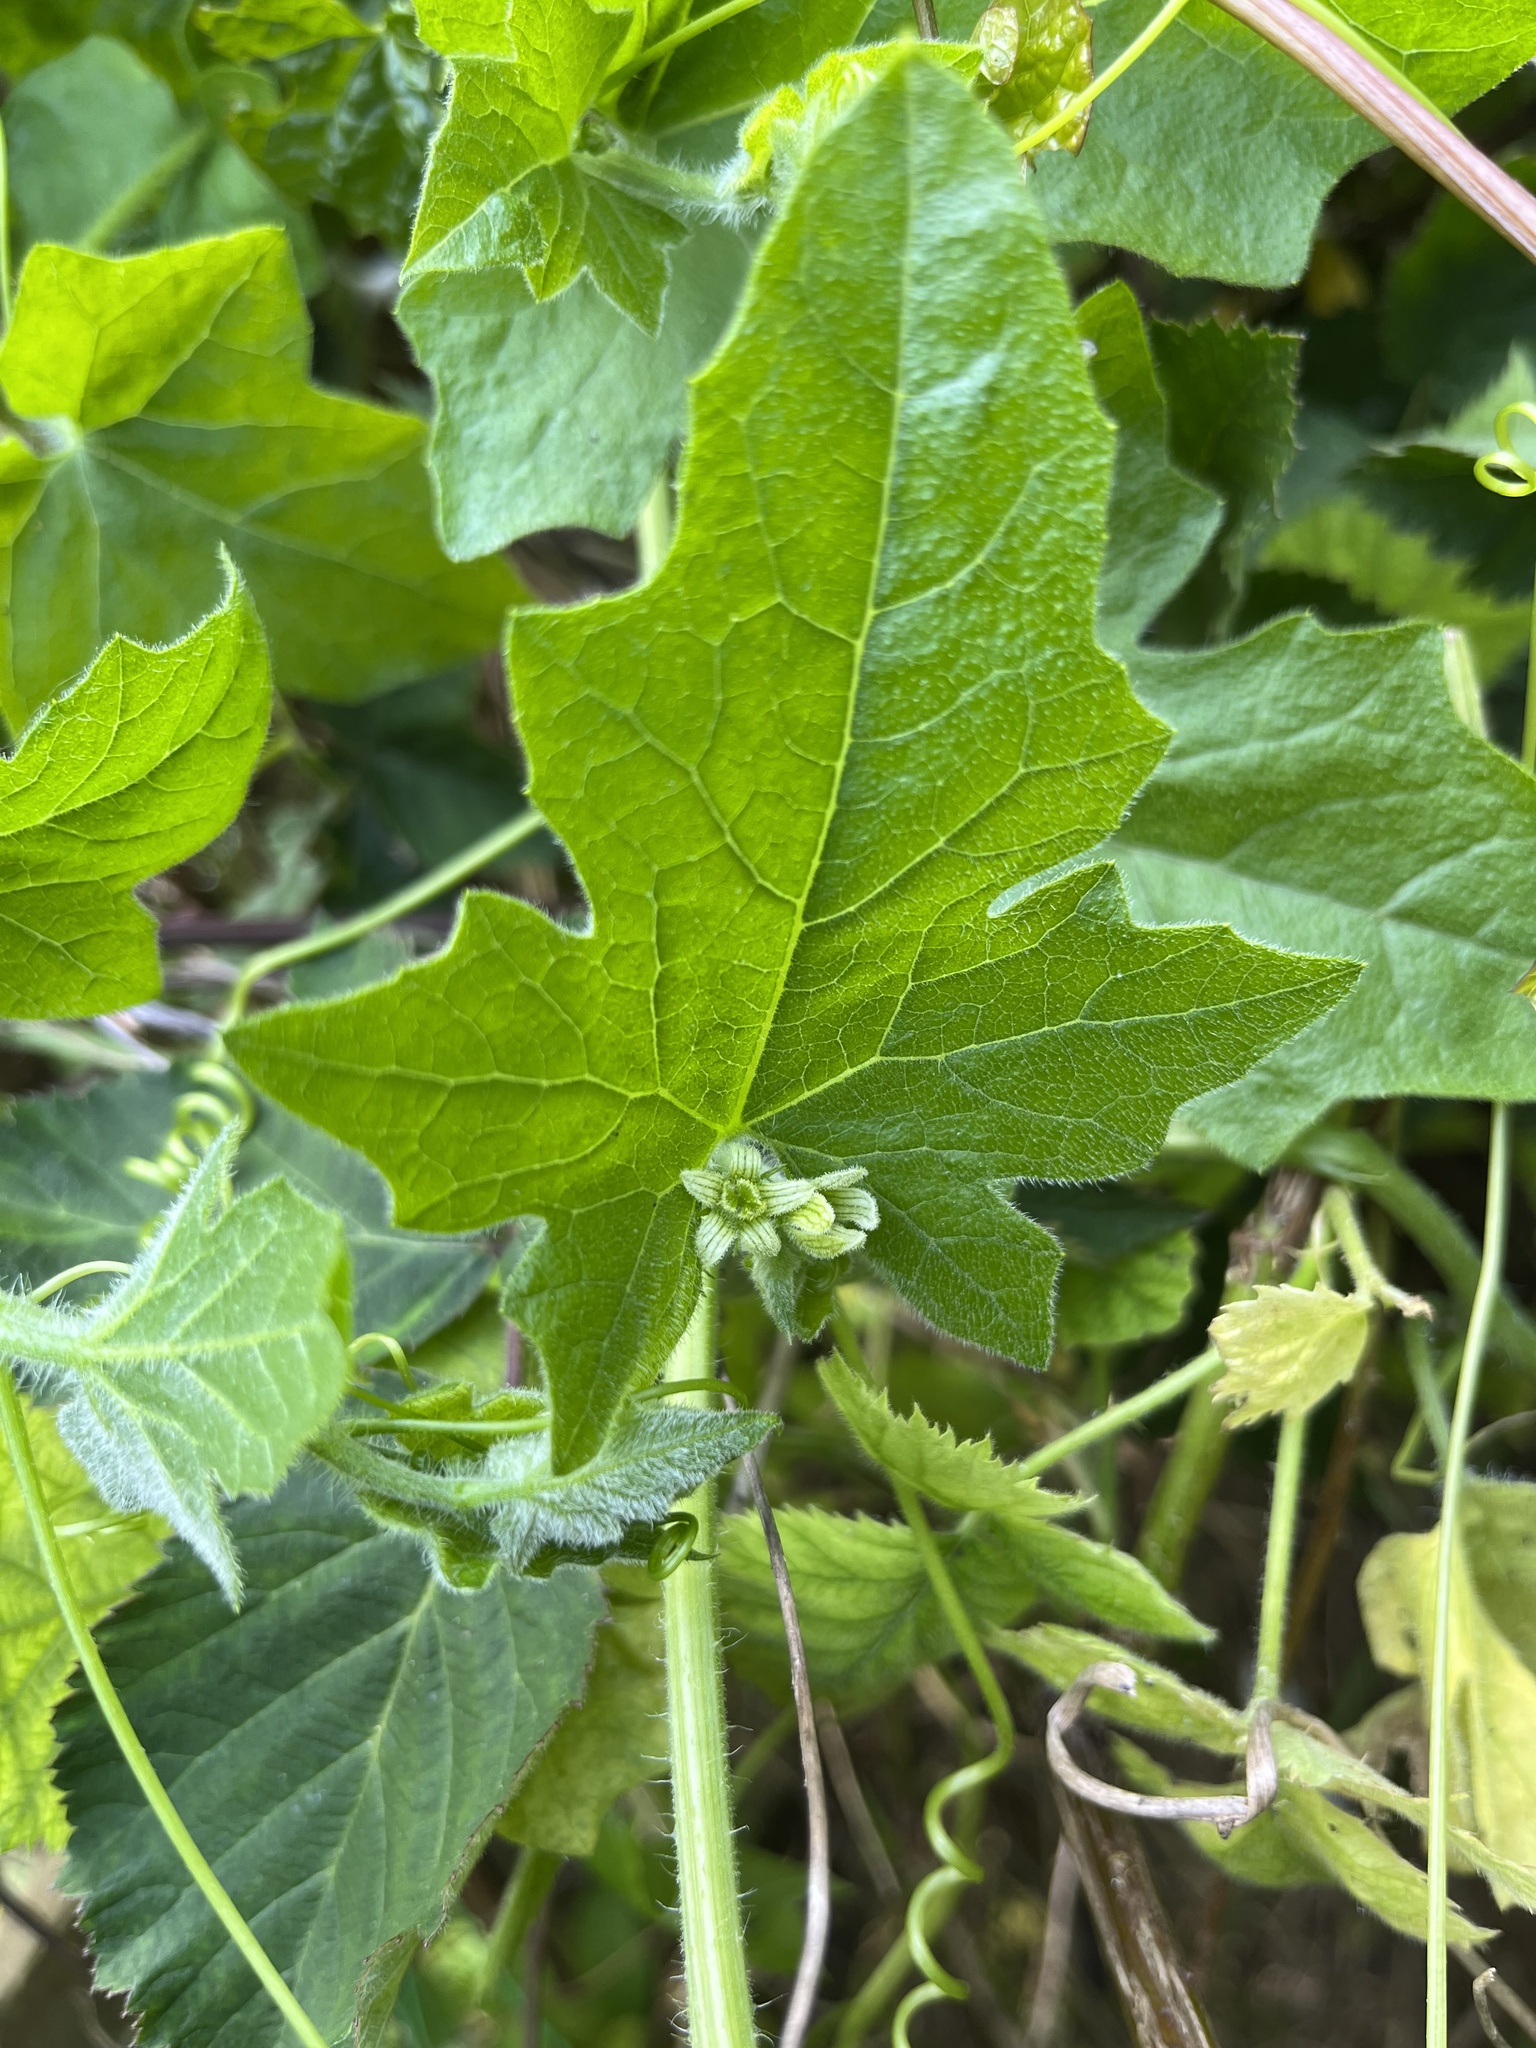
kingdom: Plantae
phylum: Tracheophyta
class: Magnoliopsida
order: Cucurbitales
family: Cucurbitaceae
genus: Bryonia
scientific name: Bryonia cretica
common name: Cretan bryony
